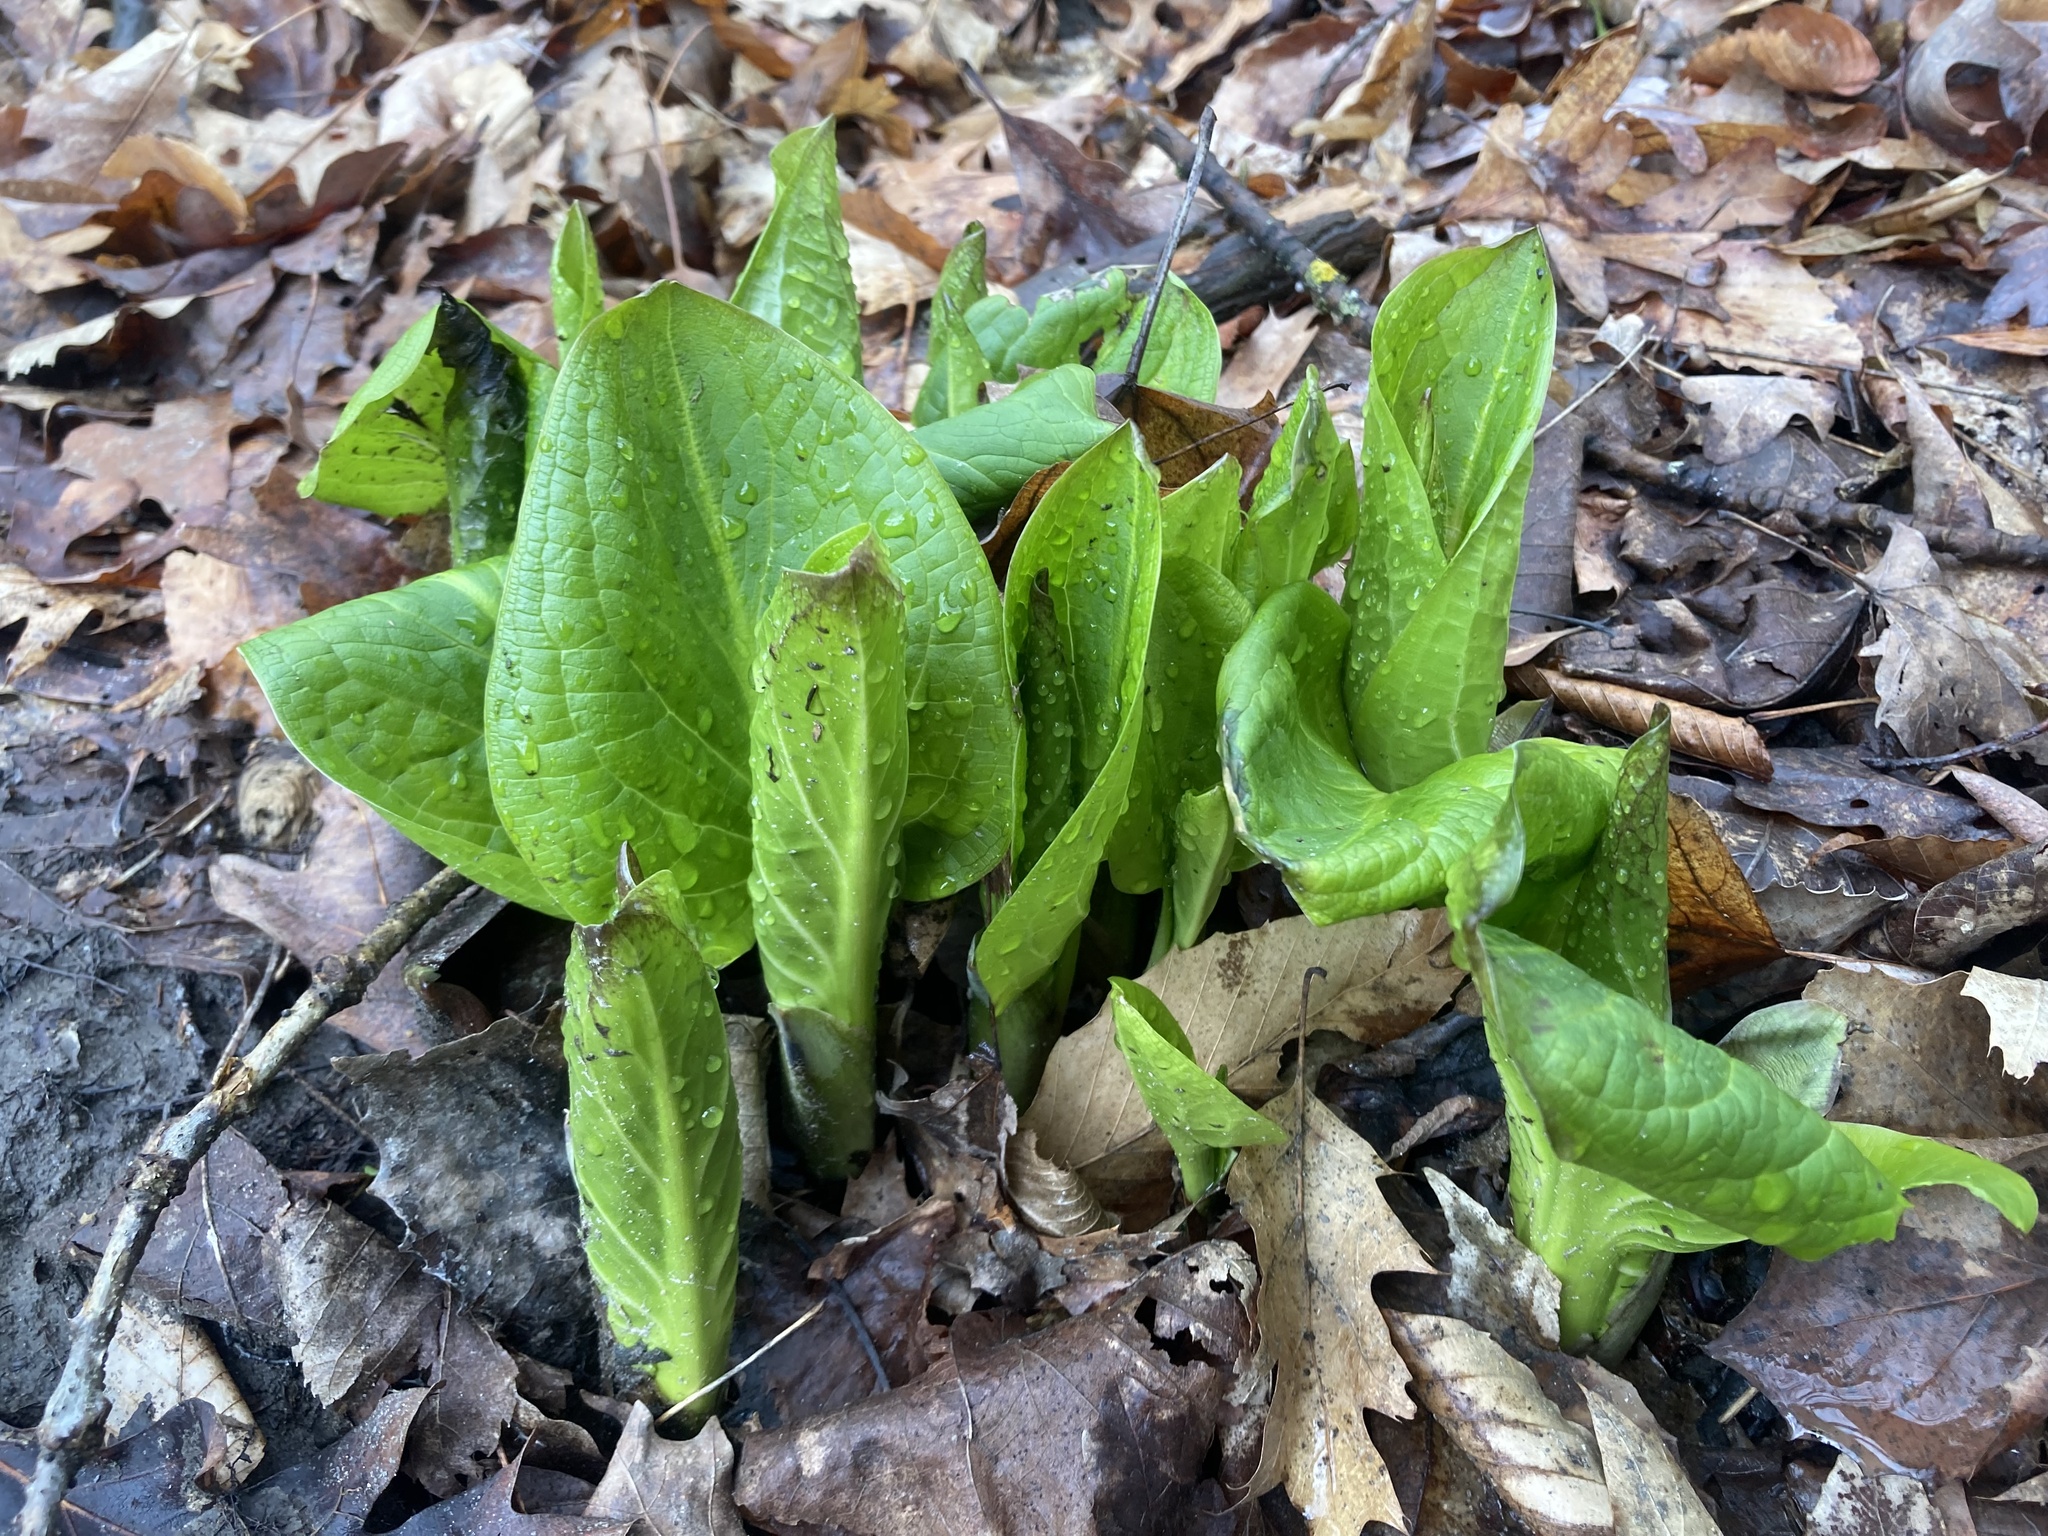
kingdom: Plantae
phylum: Tracheophyta
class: Liliopsida
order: Alismatales
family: Araceae
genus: Symplocarpus
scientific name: Symplocarpus foetidus
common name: Eastern skunk cabbage
